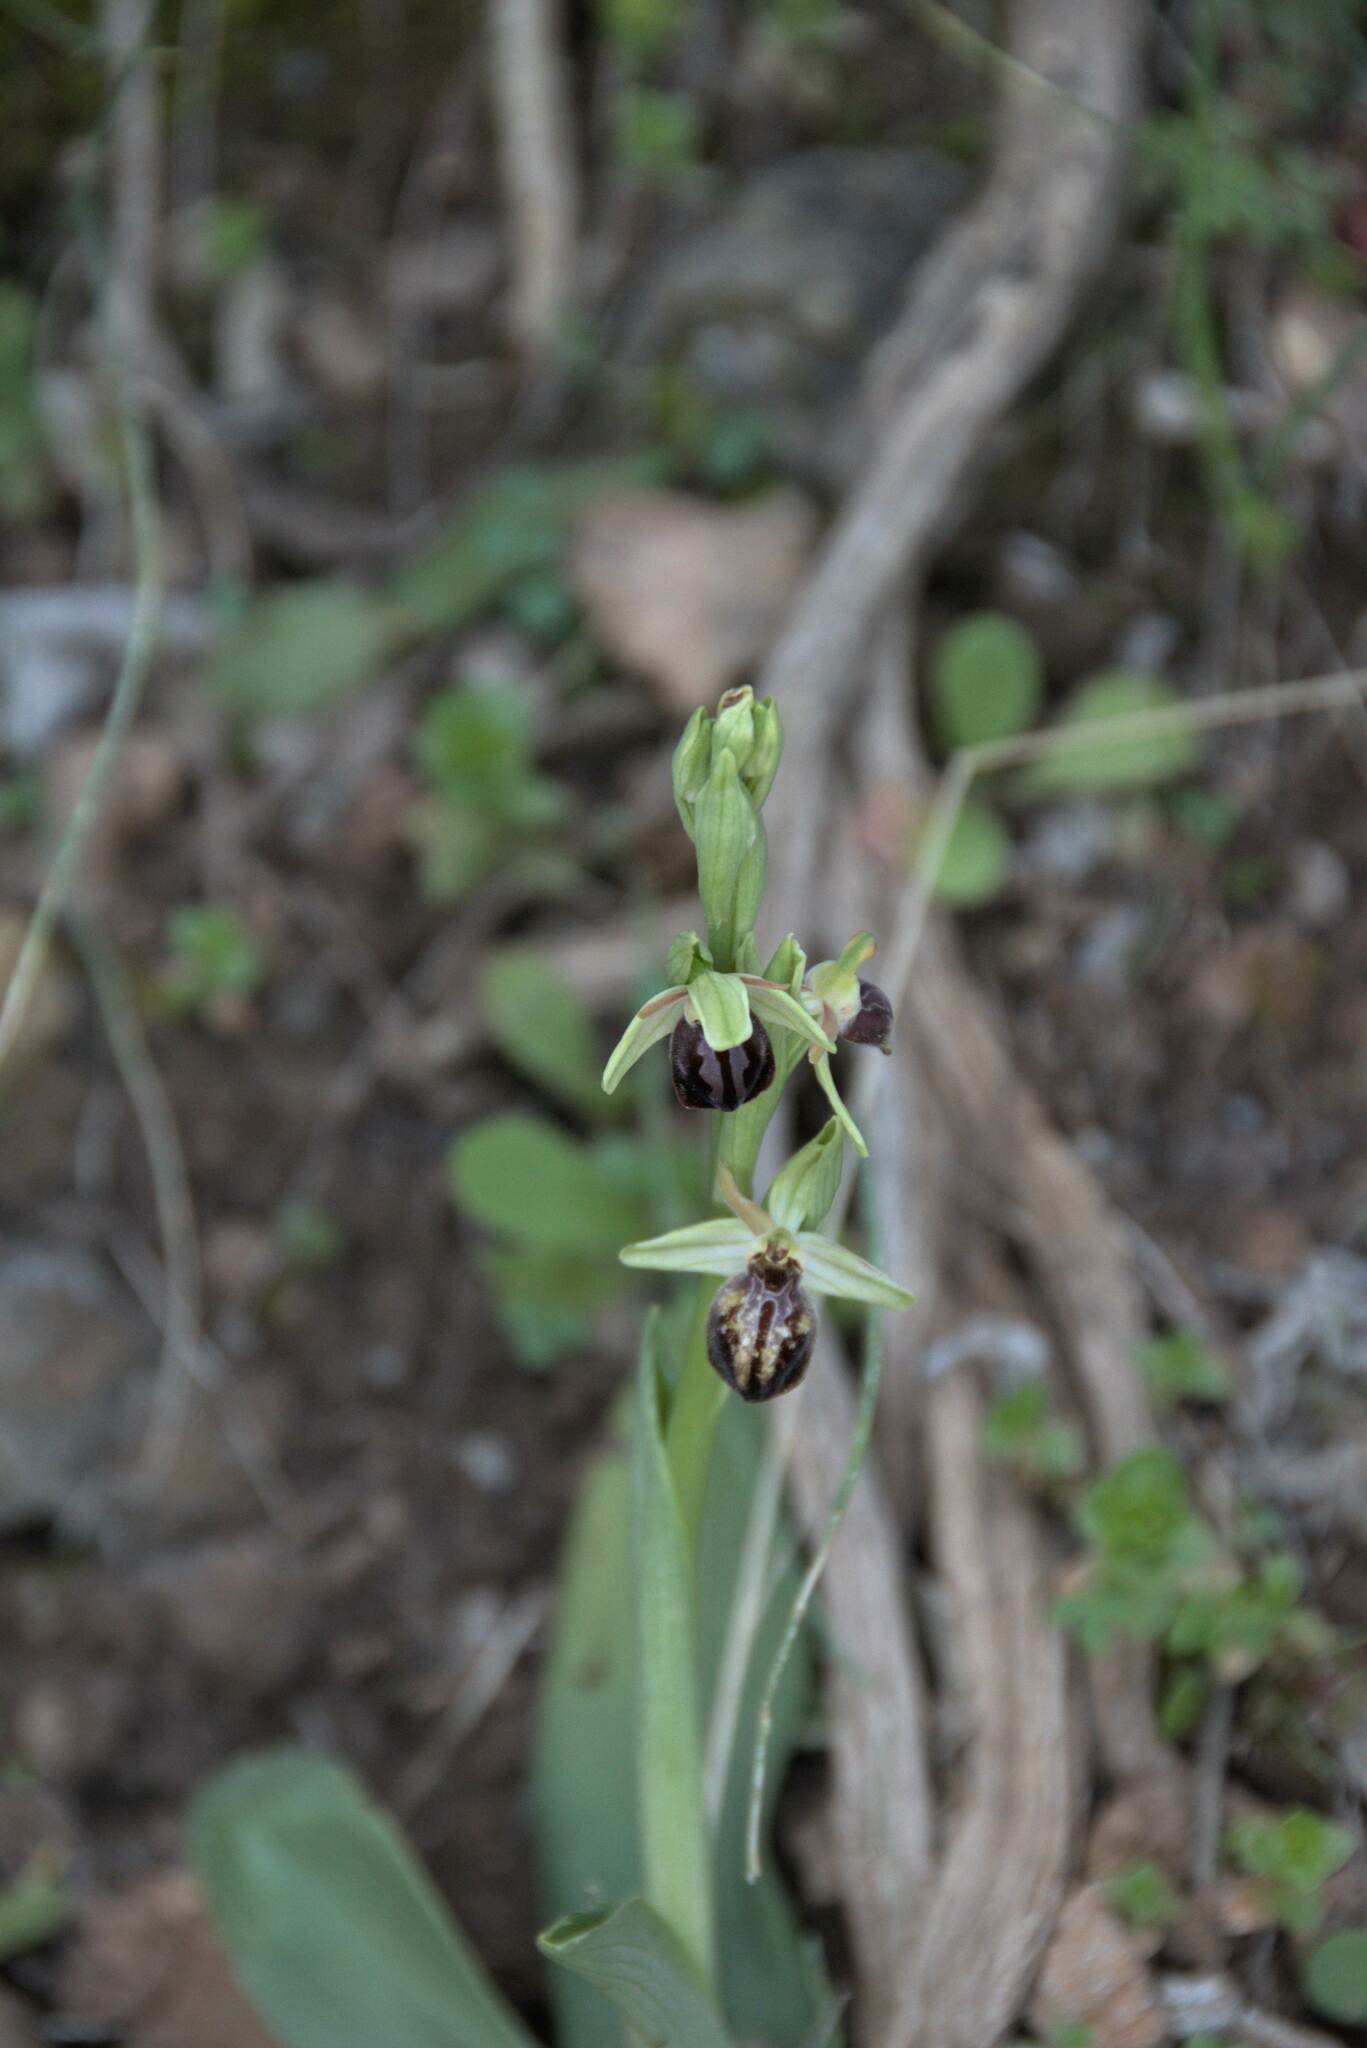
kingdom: Plantae
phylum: Tracheophyta
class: Liliopsida
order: Asparagales
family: Orchidaceae
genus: Ophrys
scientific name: Ophrys sphegodes
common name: Early spider-orchid
